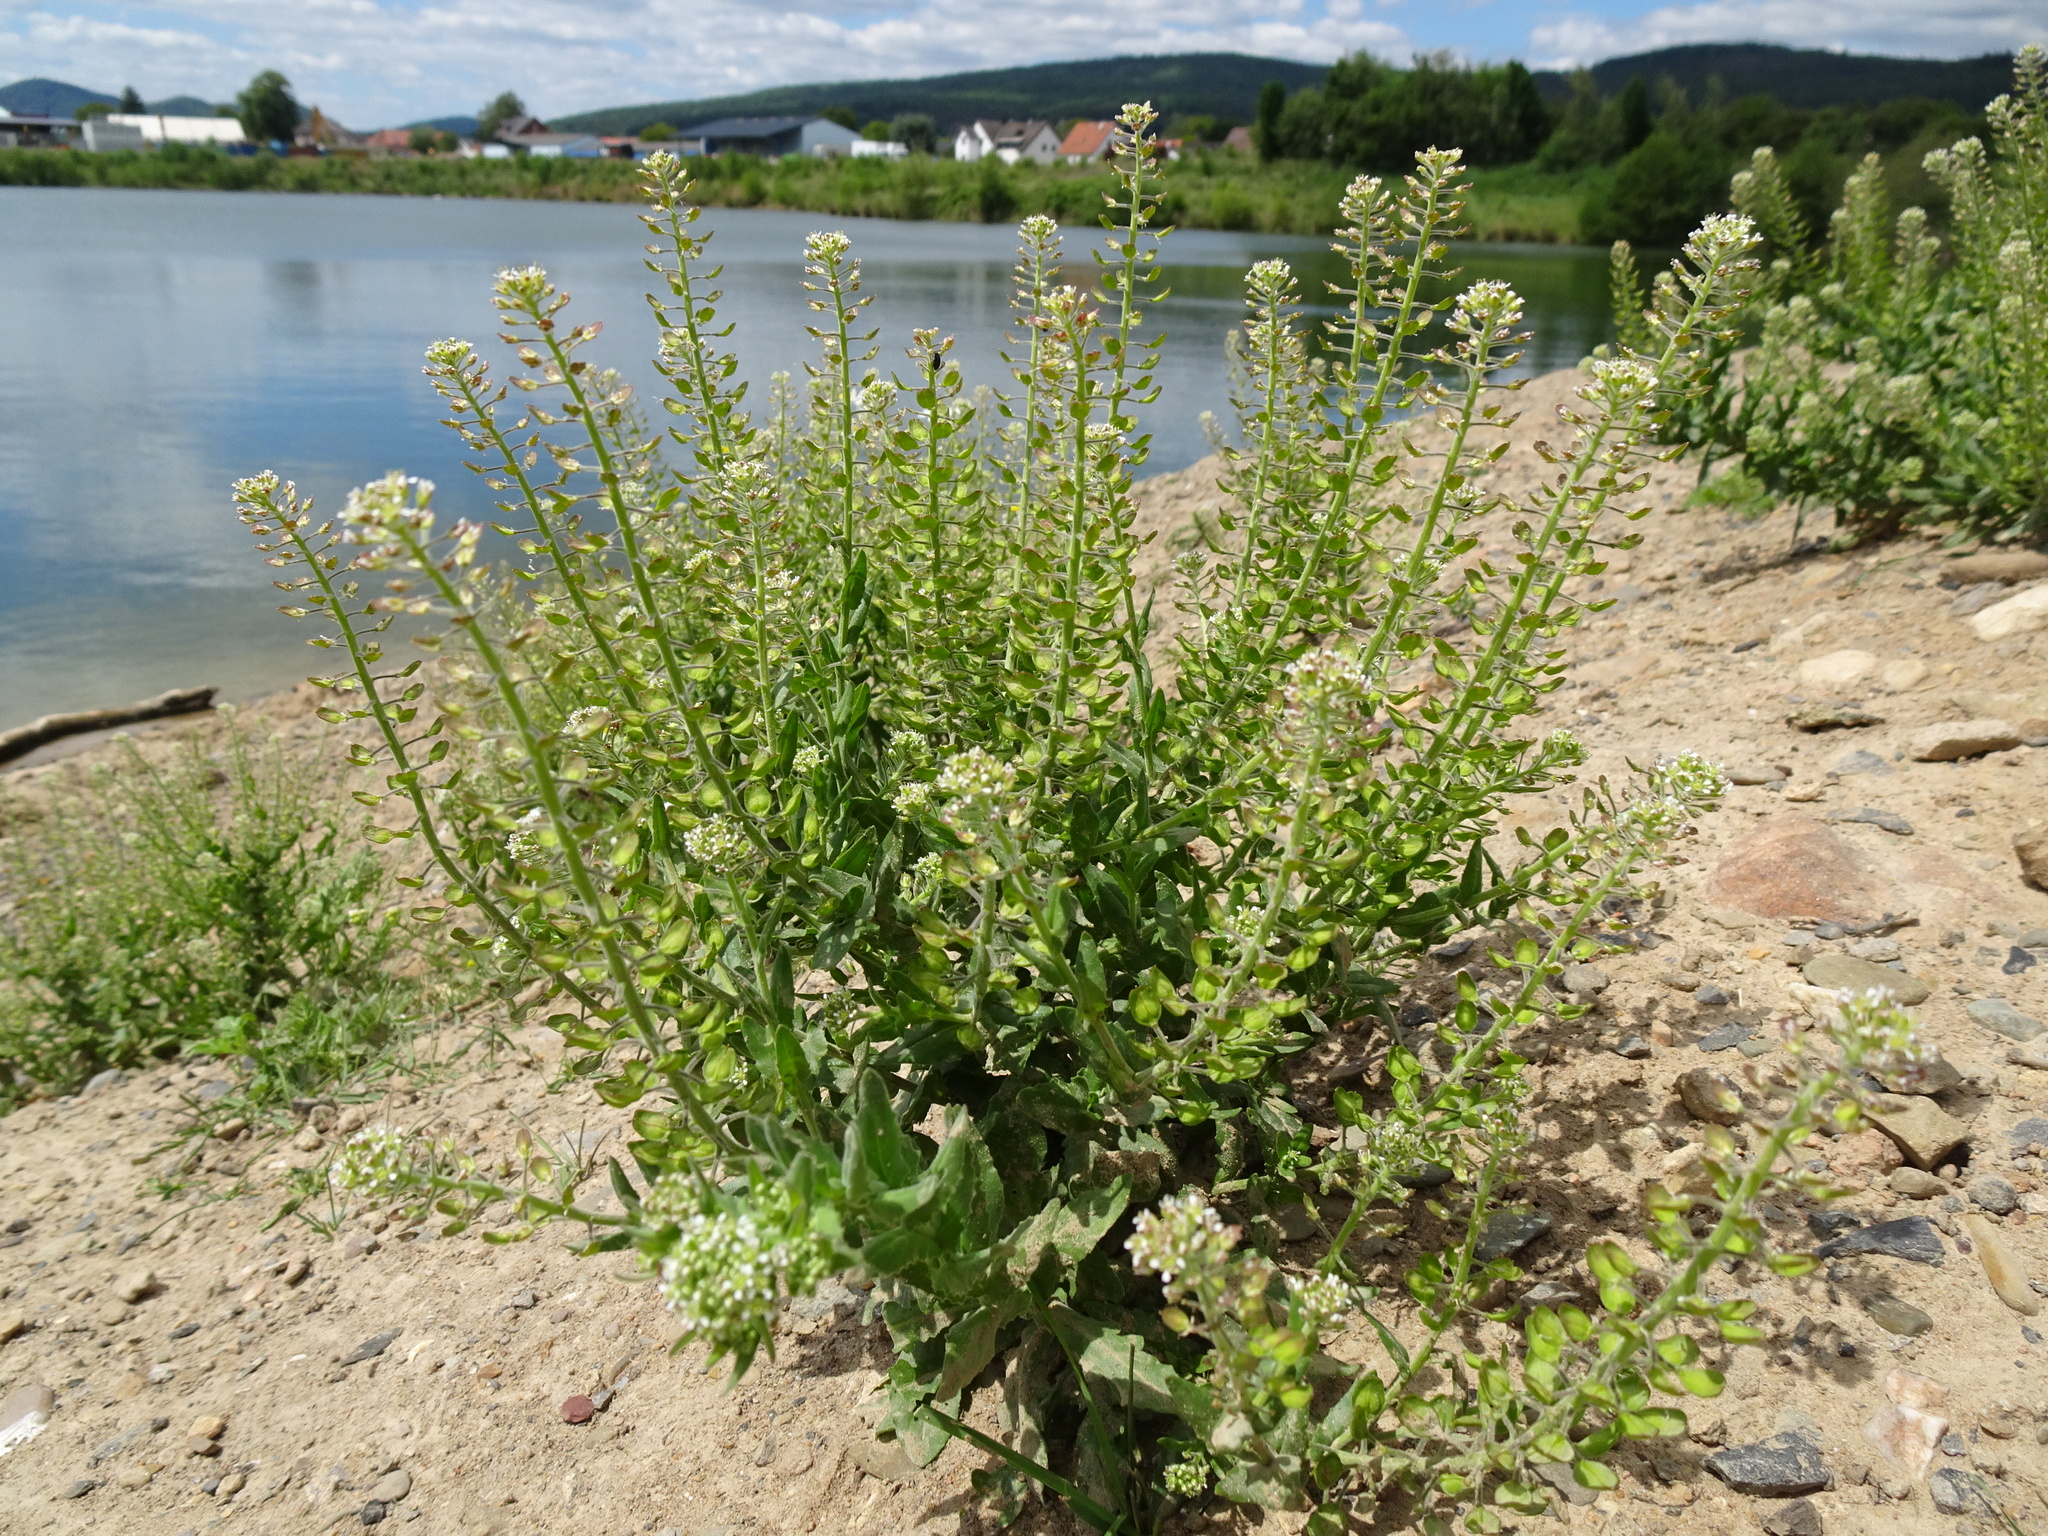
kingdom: Plantae
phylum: Tracheophyta
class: Magnoliopsida
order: Brassicales
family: Brassicaceae
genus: Lepidium
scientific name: Lepidium campestre
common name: Field pepperwort
